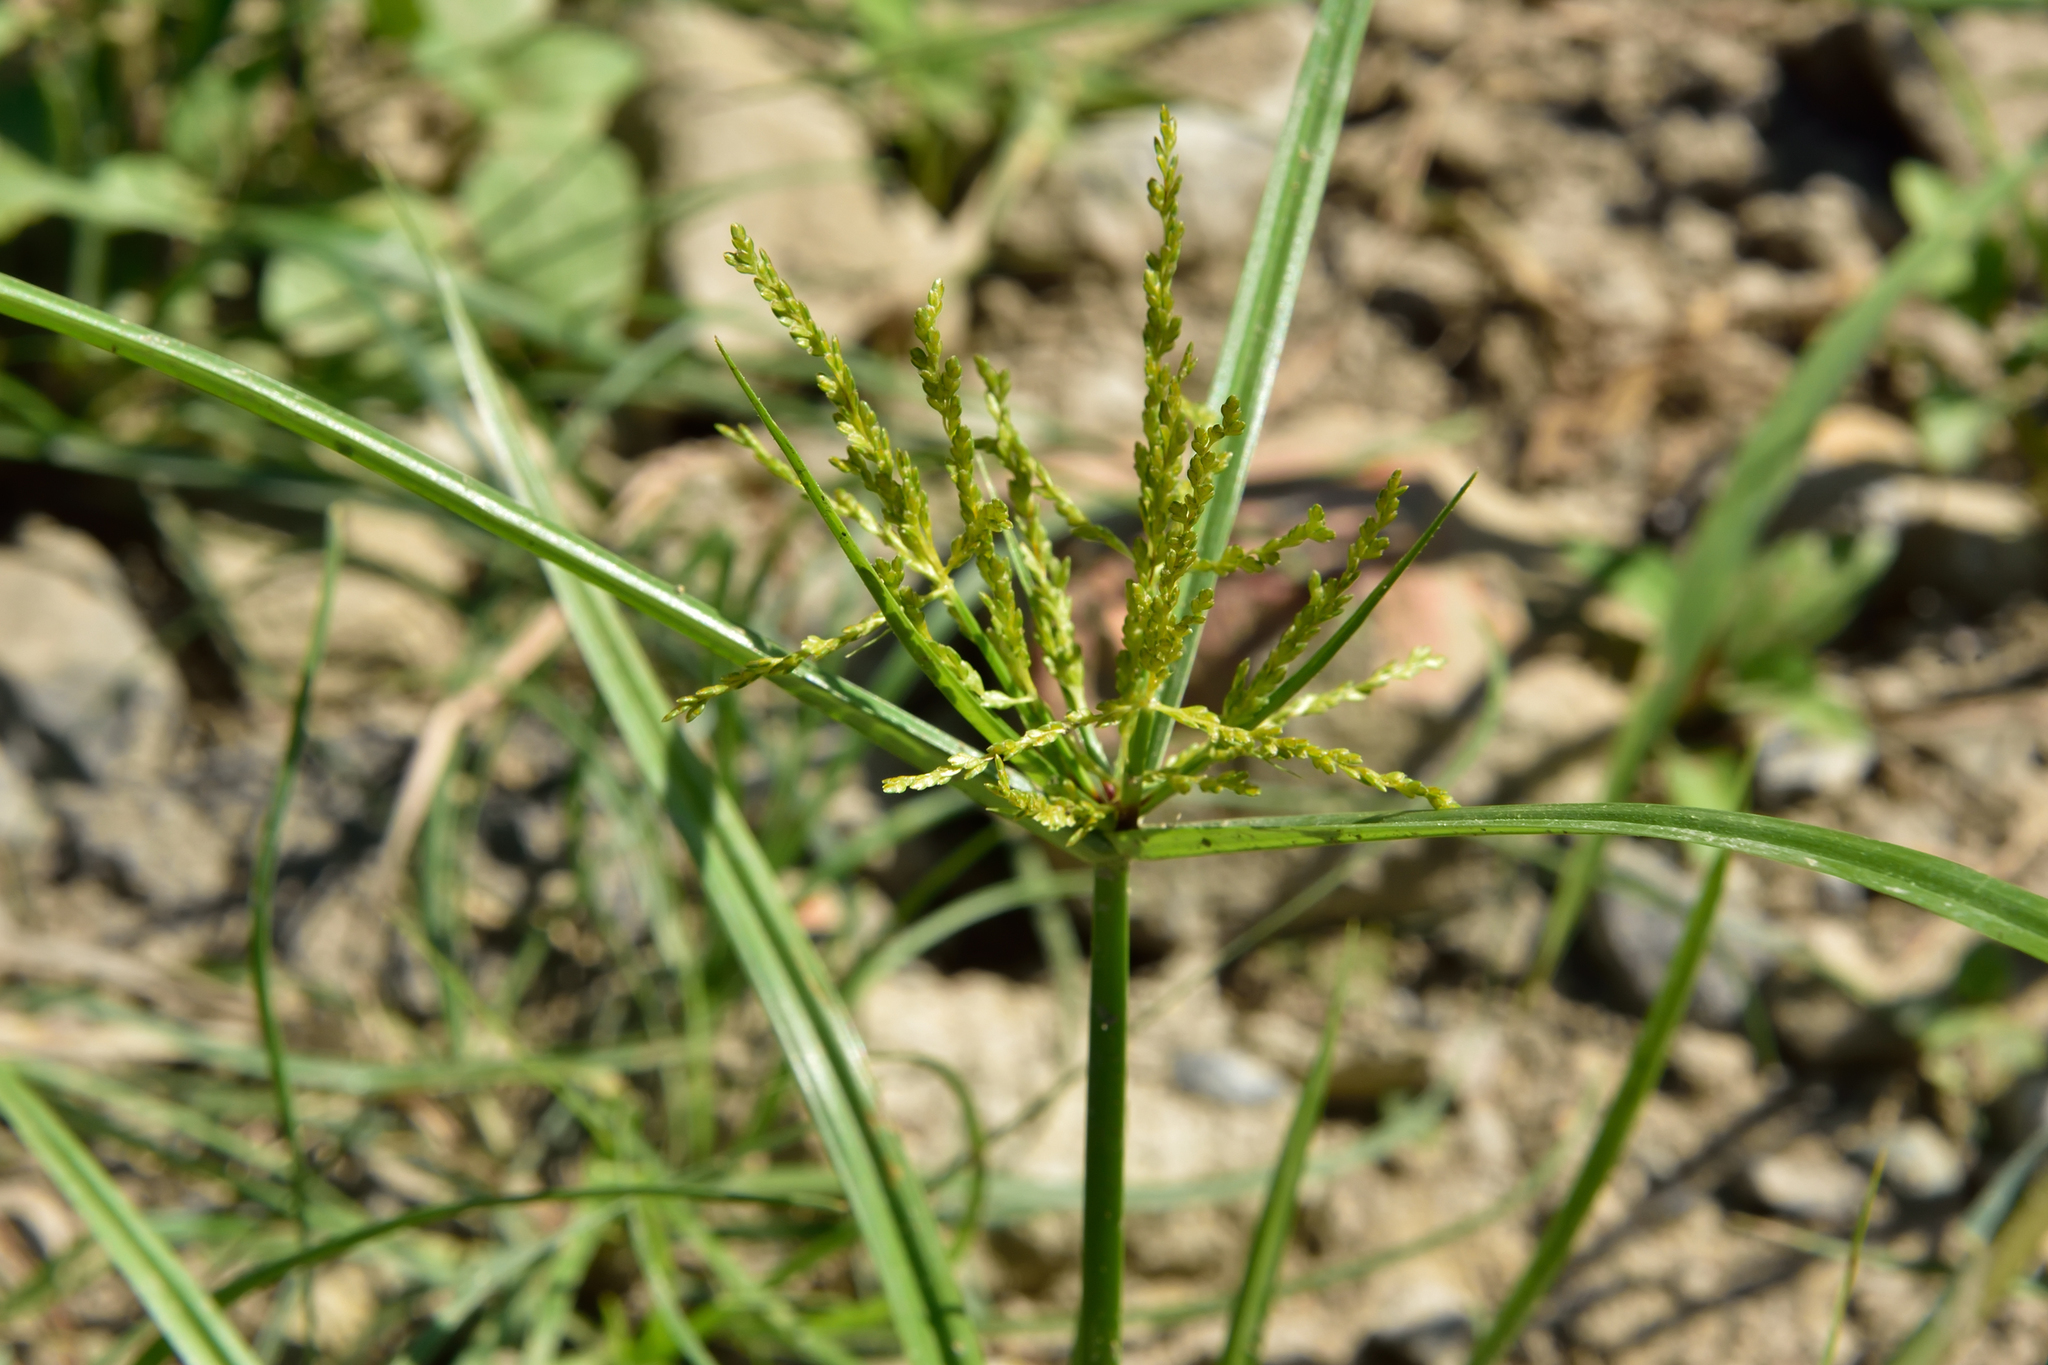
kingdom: Plantae
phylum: Tracheophyta
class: Liliopsida
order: Poales
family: Cyperaceae
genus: Cyperus
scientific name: Cyperus iria
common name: Ricefield flatsedge
